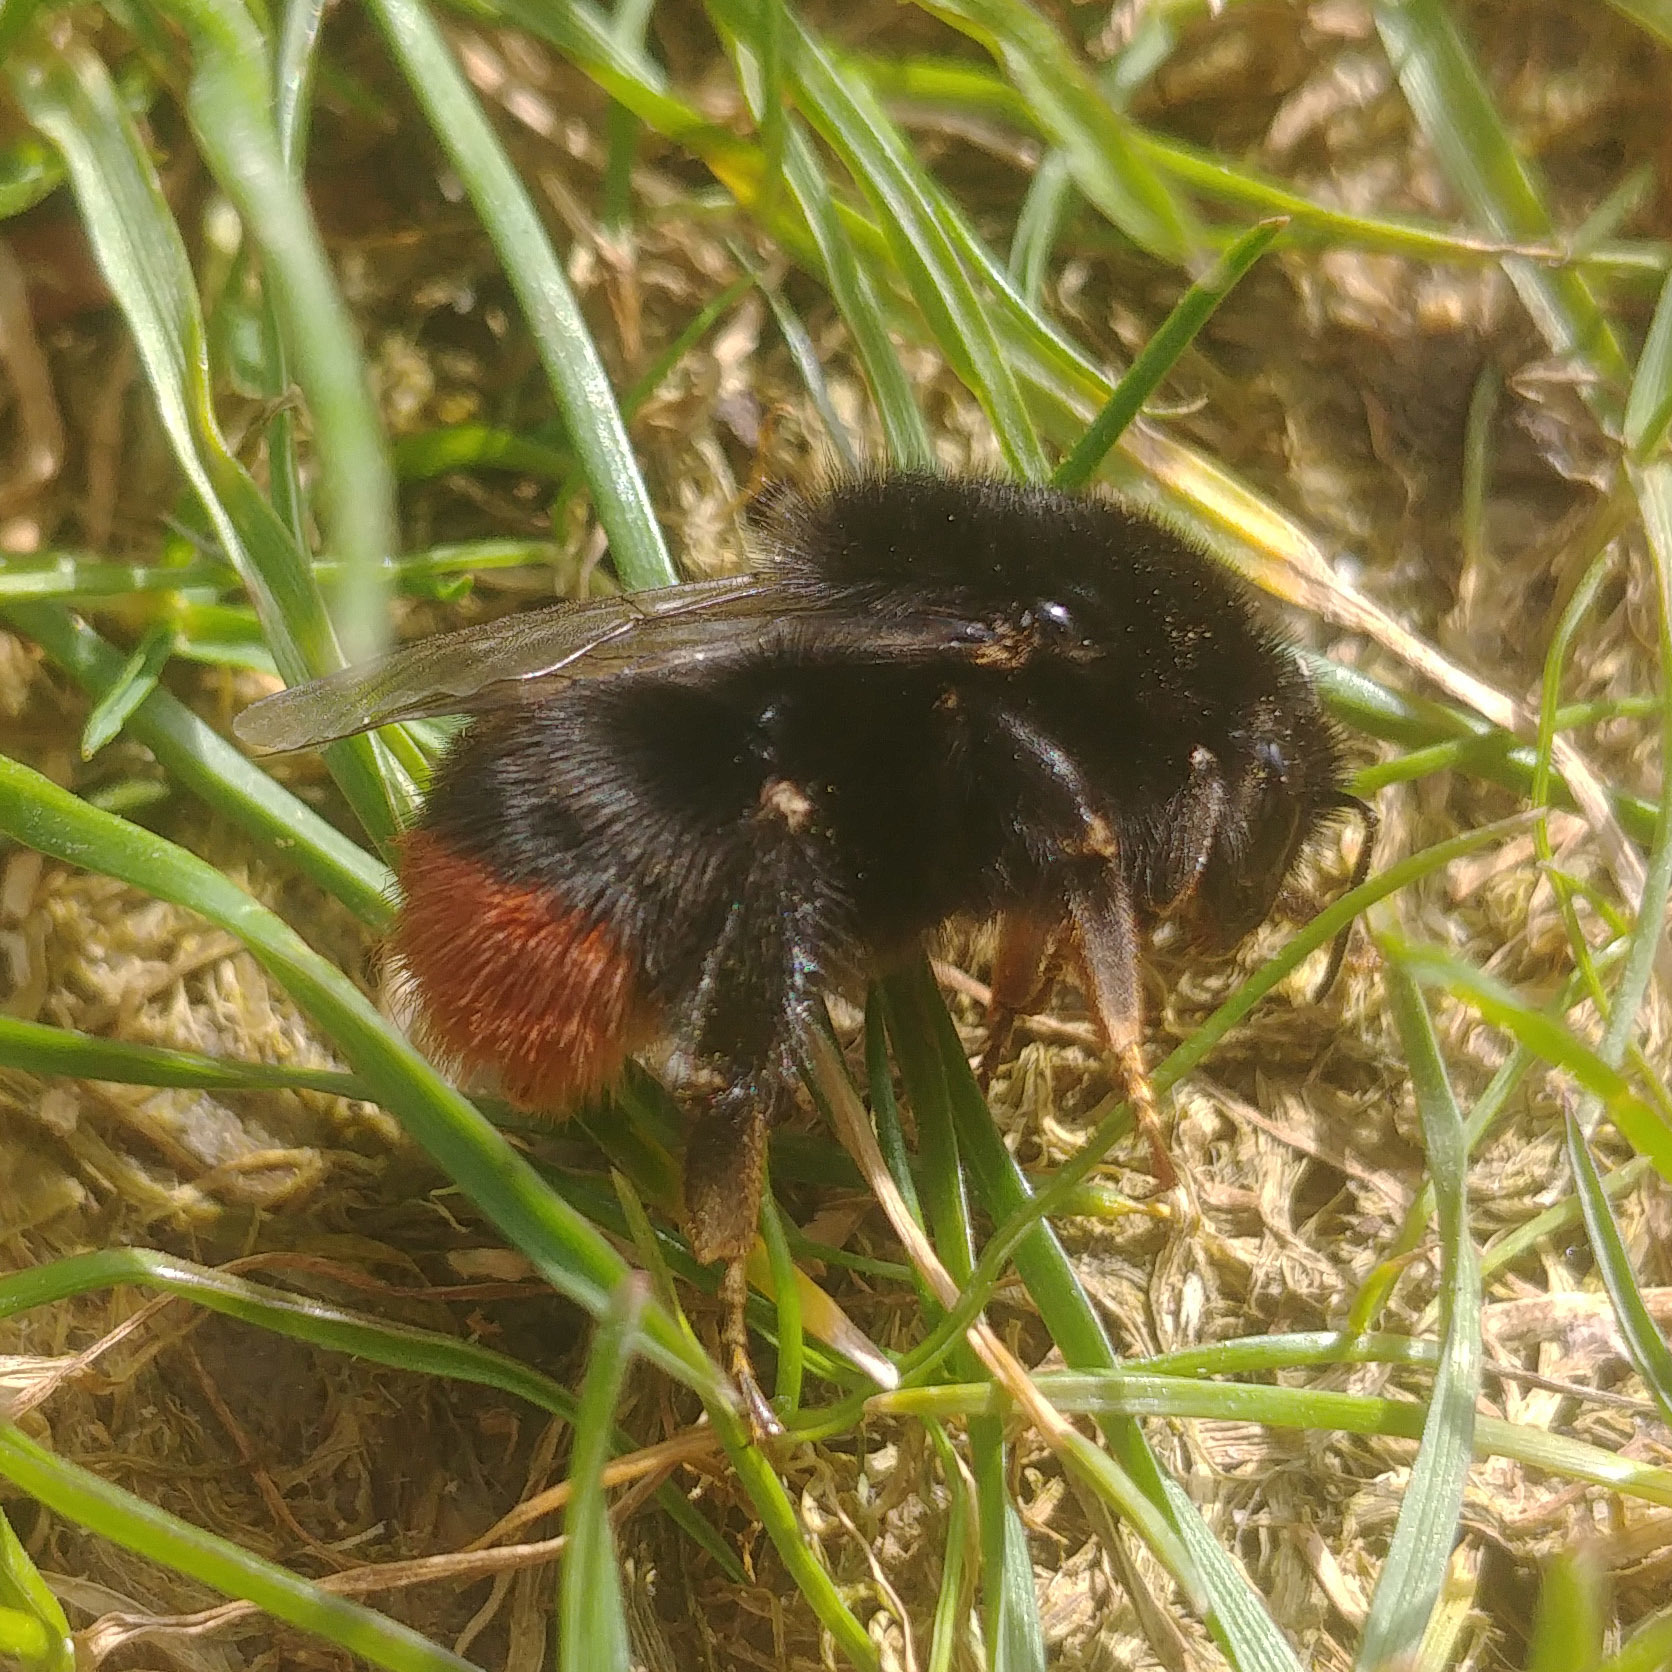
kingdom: Animalia
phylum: Arthropoda
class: Insecta
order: Hymenoptera
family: Apidae
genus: Bombus
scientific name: Bombus lapidarius
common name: Large red-tailed humble-bee
